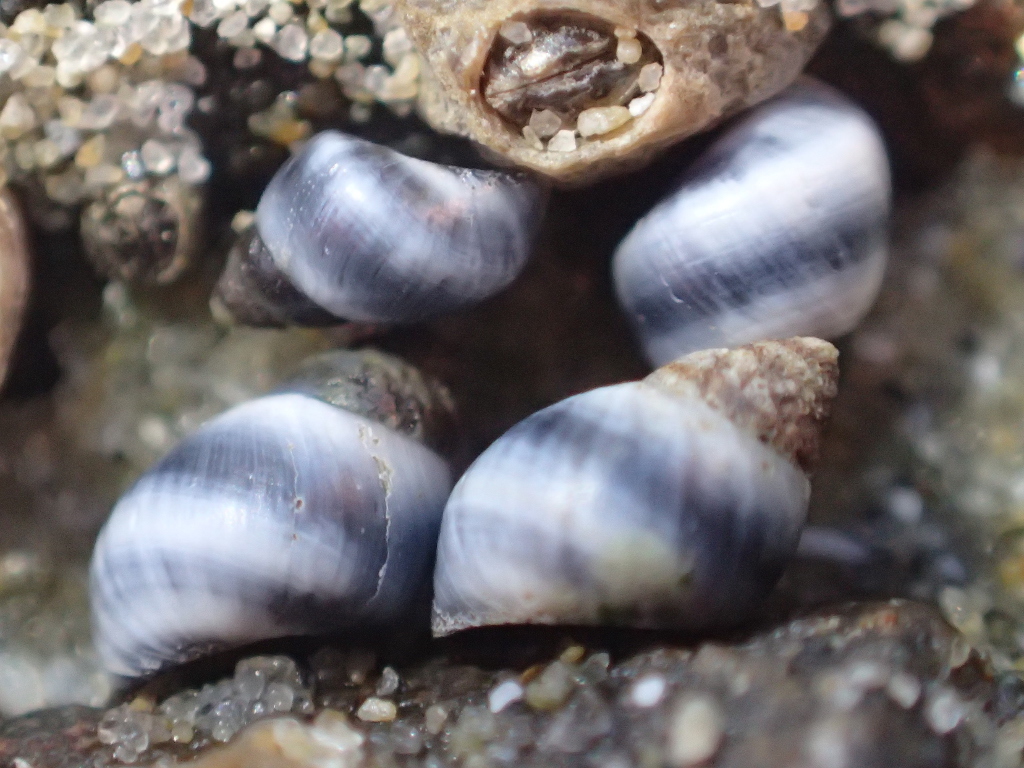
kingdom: Animalia
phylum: Mollusca
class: Gastropoda
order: Littorinimorpha
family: Littorinidae
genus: Austrolittorina
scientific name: Austrolittorina antipodum
